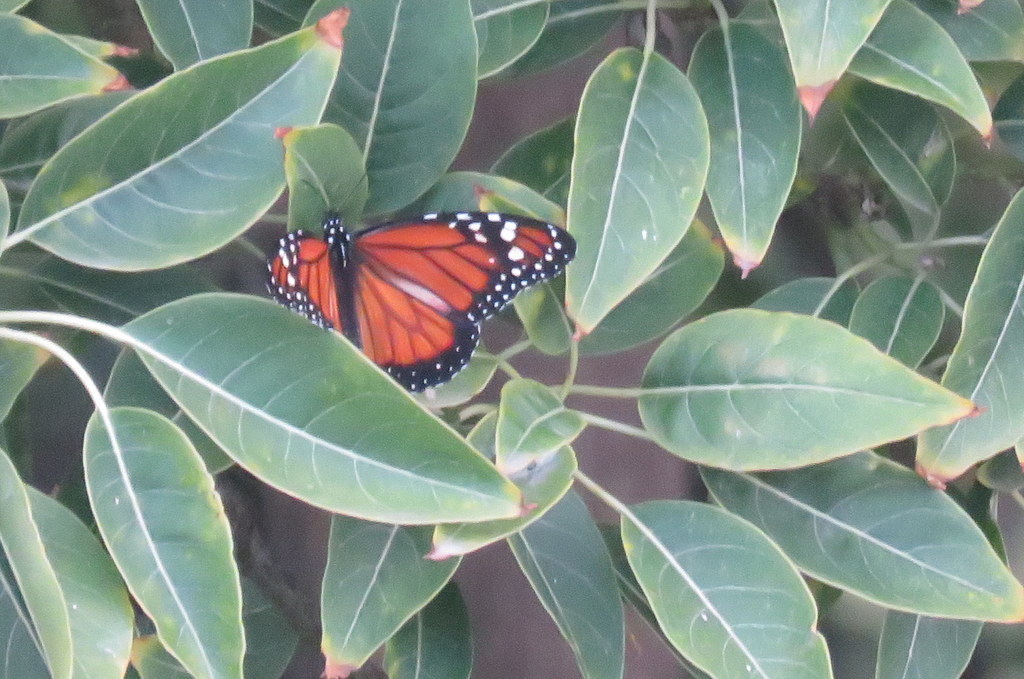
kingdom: Animalia
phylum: Arthropoda
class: Insecta
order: Lepidoptera
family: Nymphalidae
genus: Danaus
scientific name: Danaus erippus
